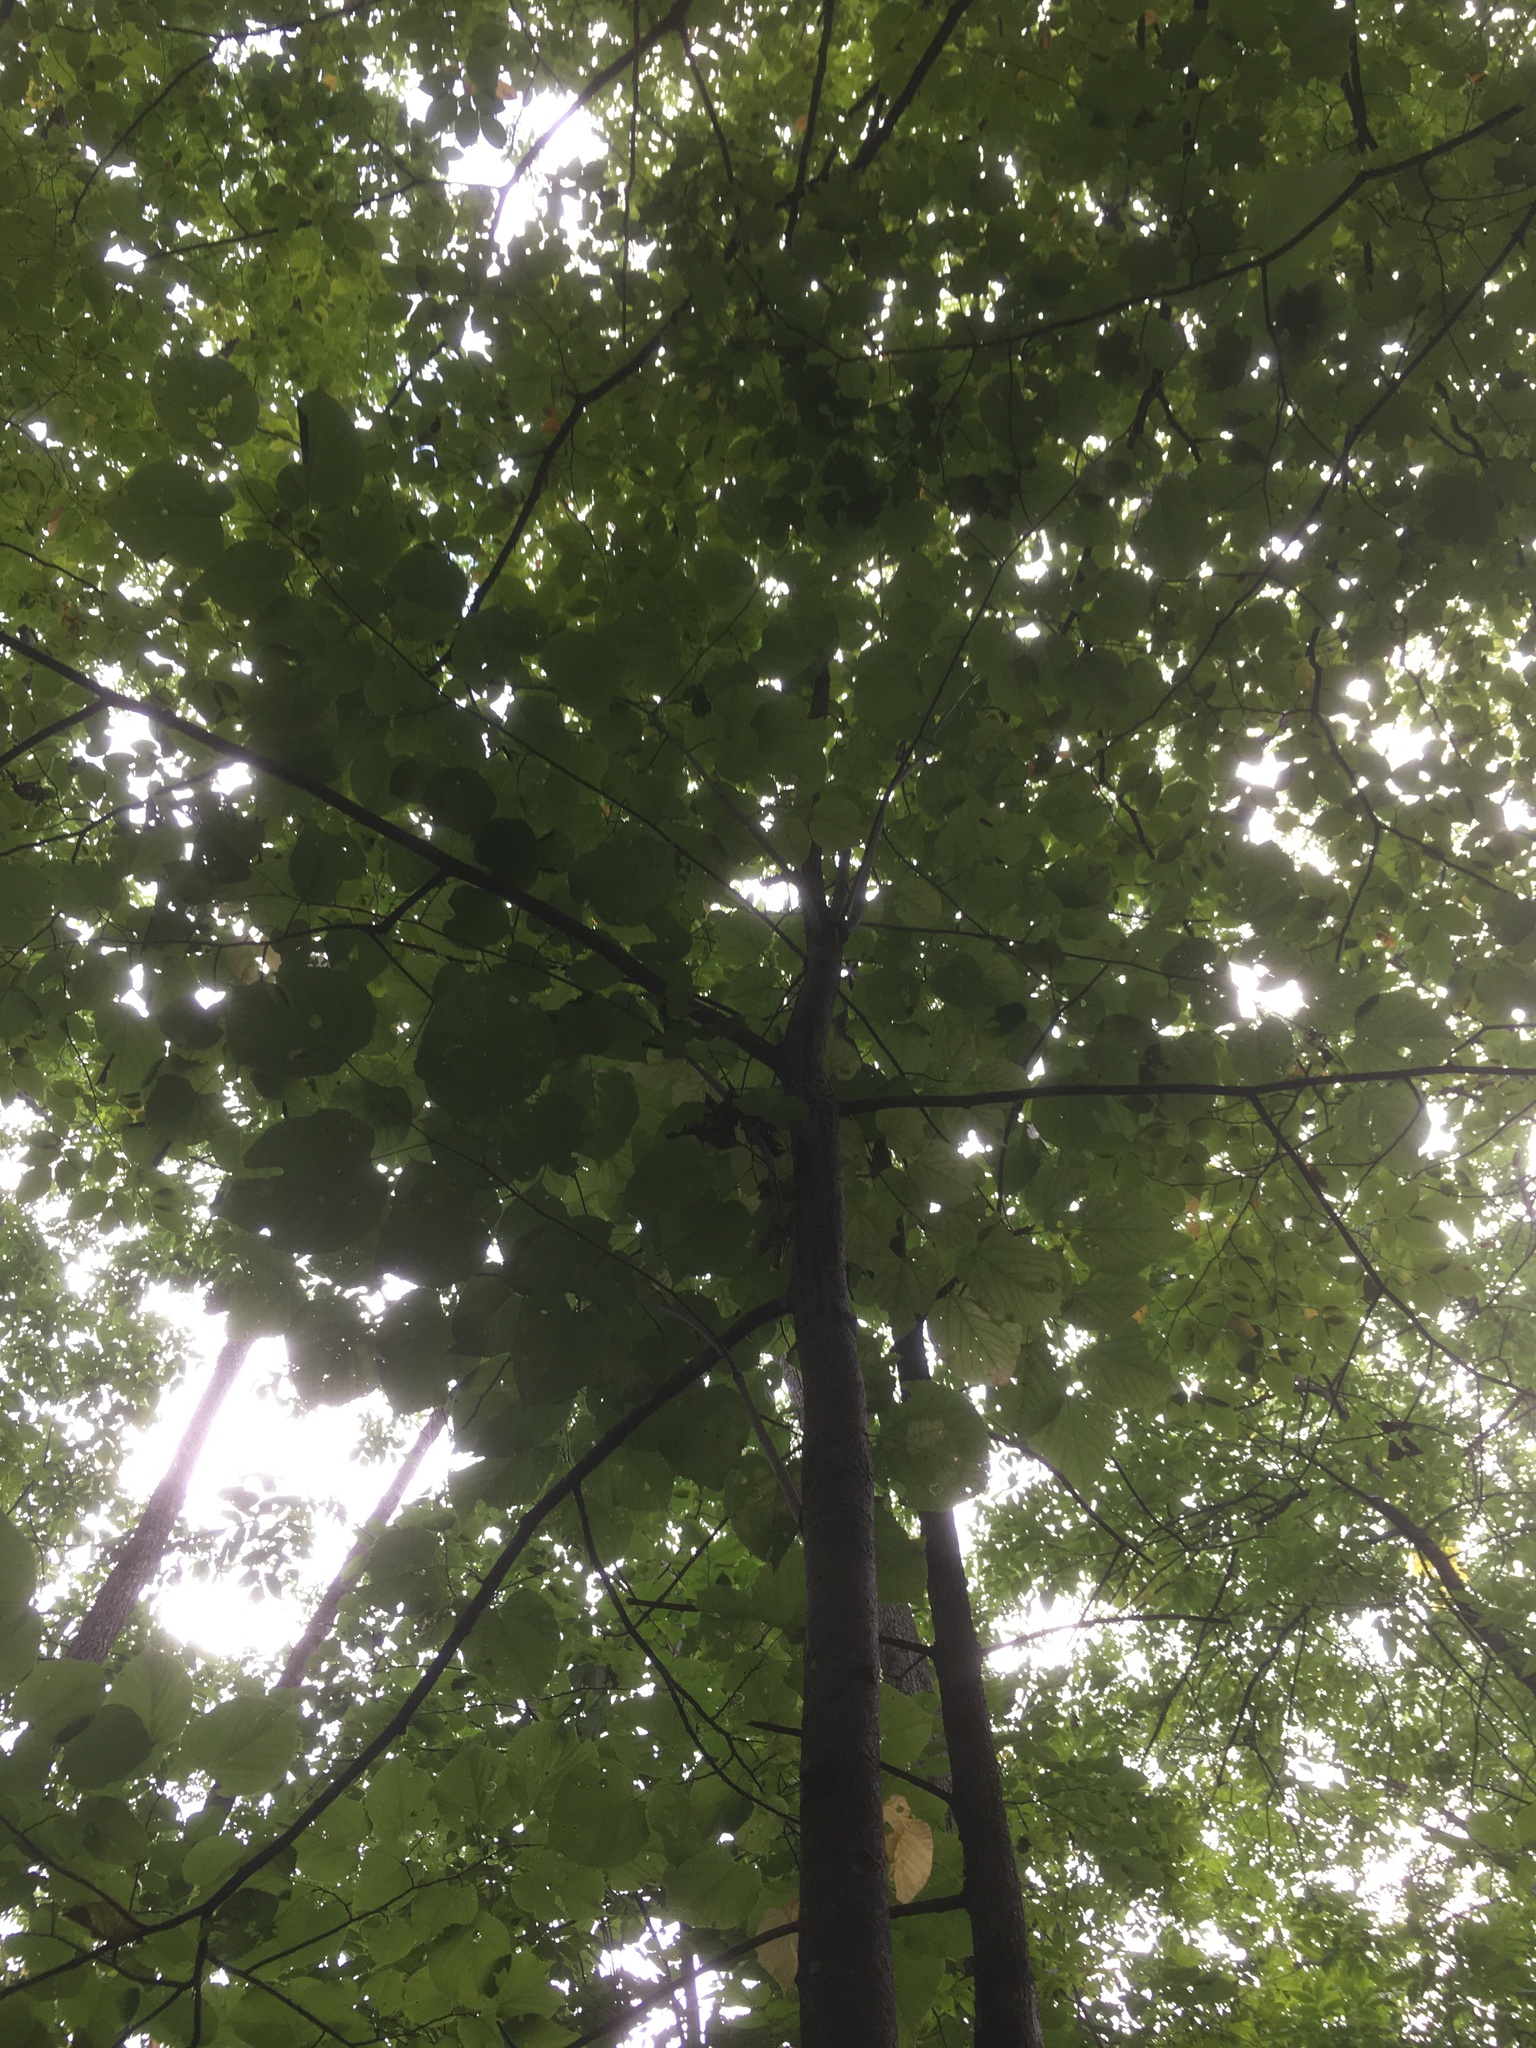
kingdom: Plantae
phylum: Tracheophyta
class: Magnoliopsida
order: Malvales
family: Malvaceae
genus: Tilia
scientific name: Tilia americana
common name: Basswood
